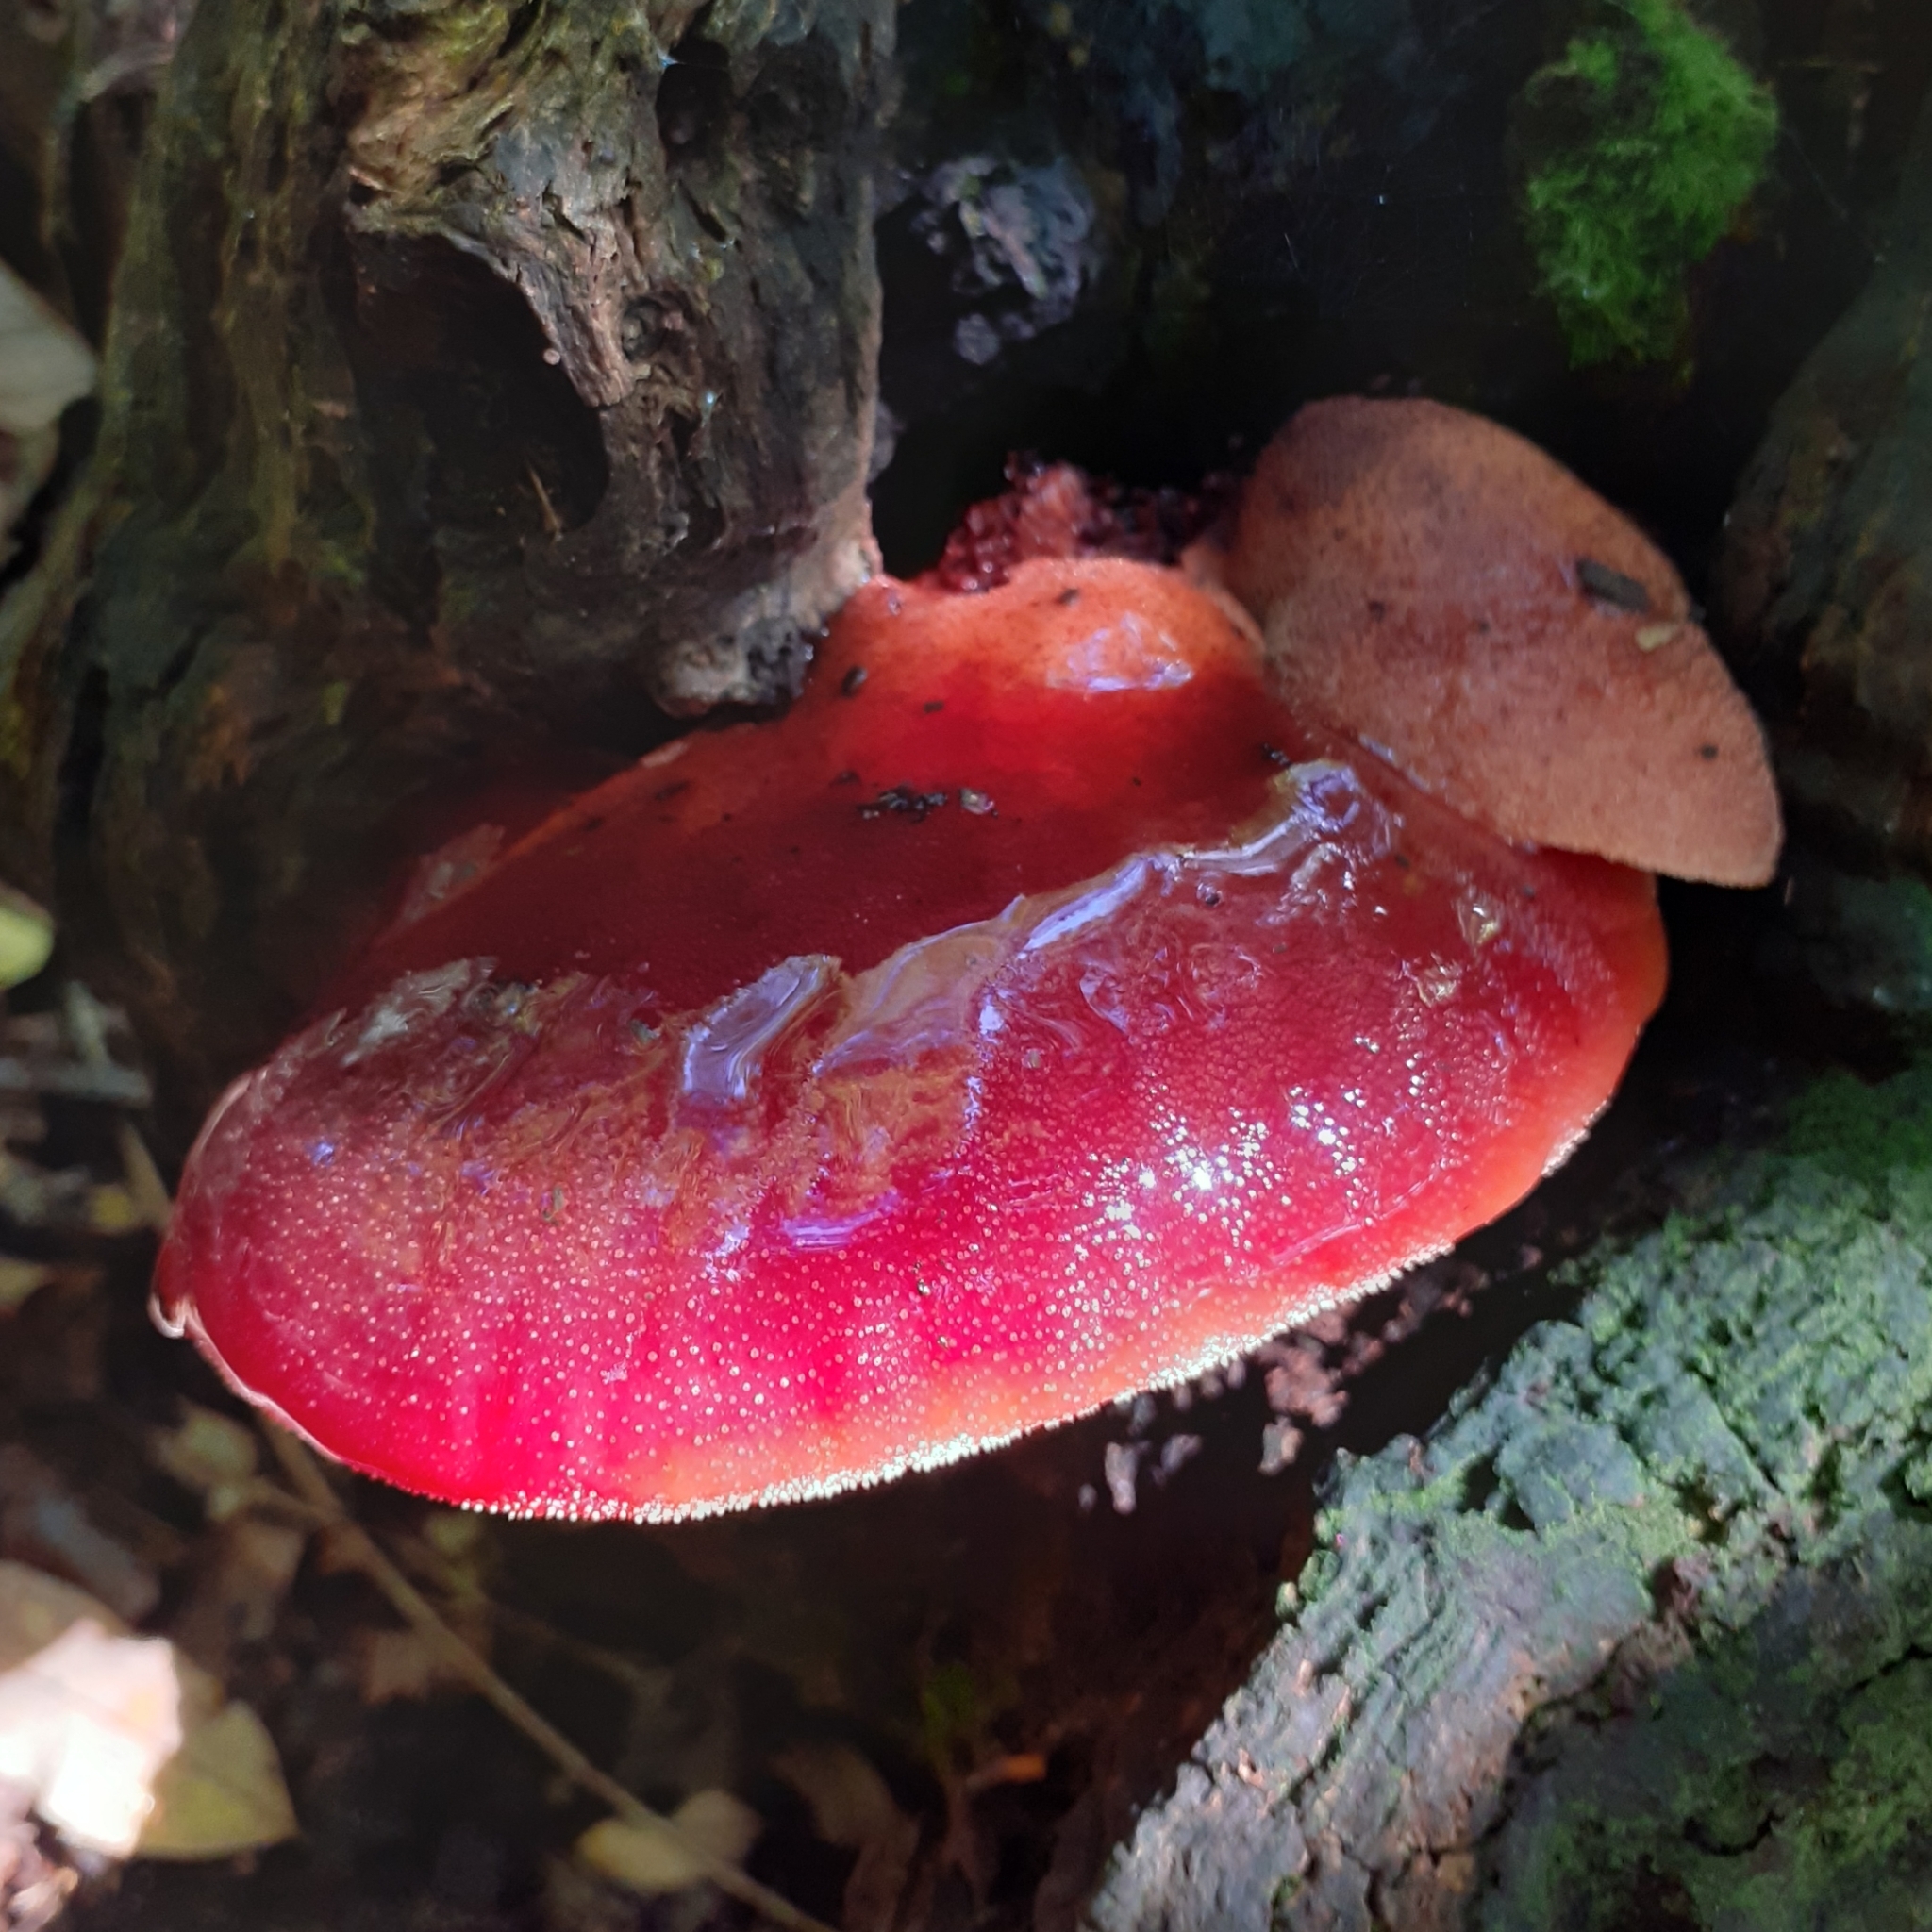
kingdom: Fungi
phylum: Basidiomycota
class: Agaricomycetes
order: Agaricales
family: Fistulinaceae
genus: Fistulina
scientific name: Fistulina hepatica
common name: Beef-steak fungus
